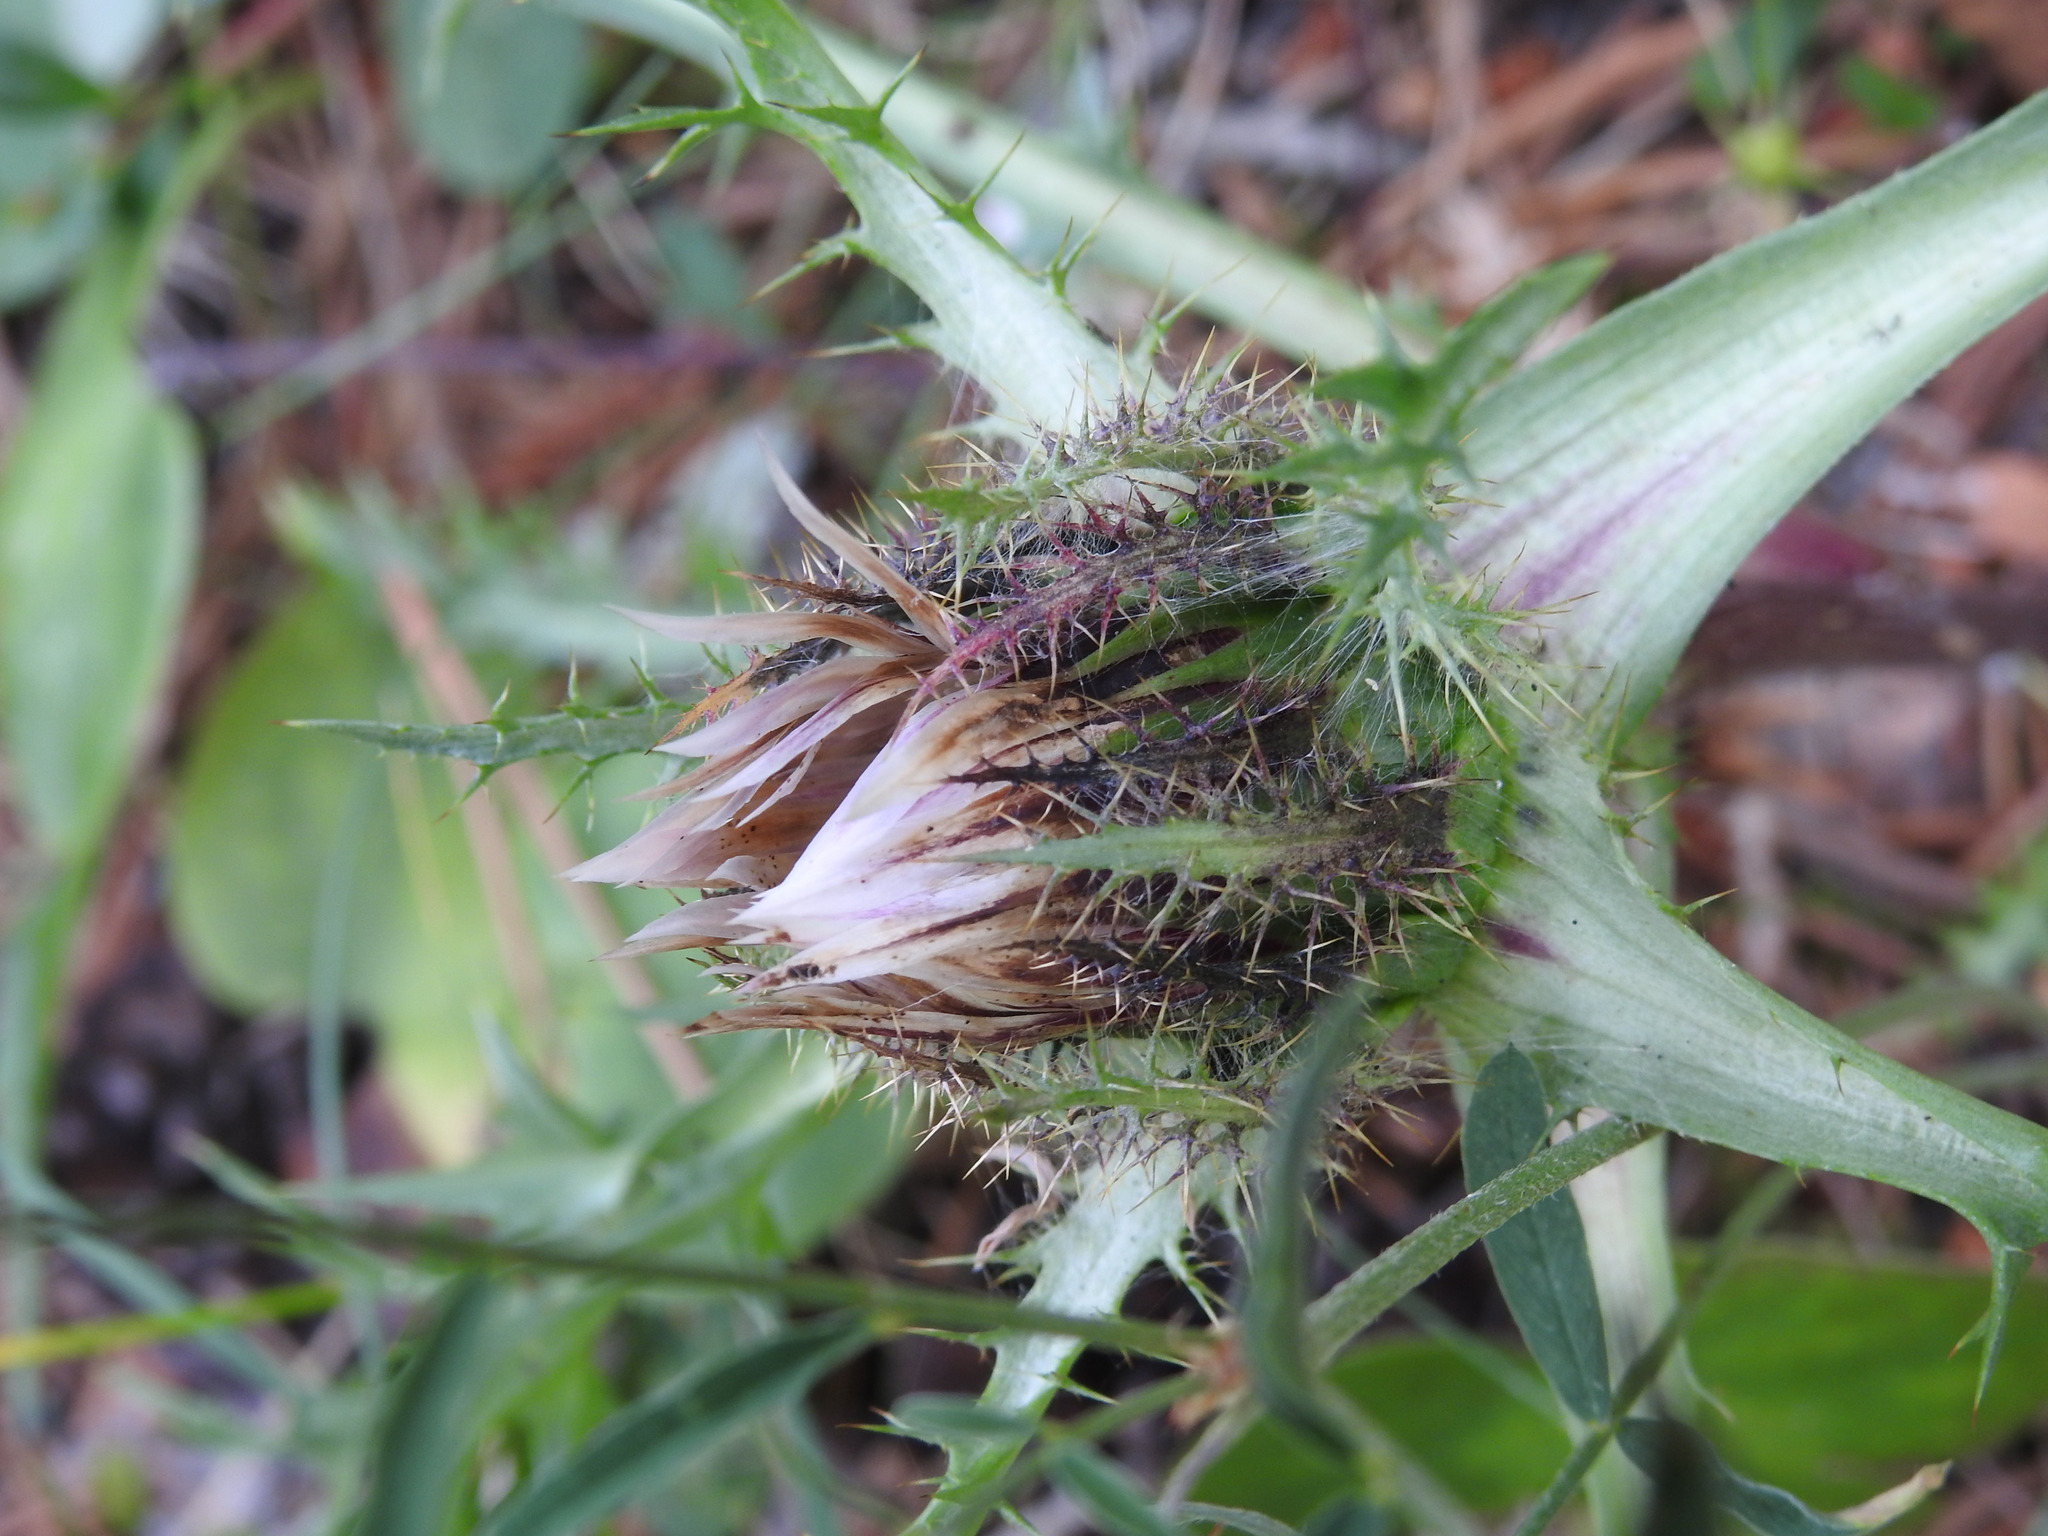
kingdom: Plantae
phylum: Tracheophyta
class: Magnoliopsida
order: Asterales
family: Asteraceae
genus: Carlina
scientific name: Carlina acaulis
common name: Stemless carline thistle
